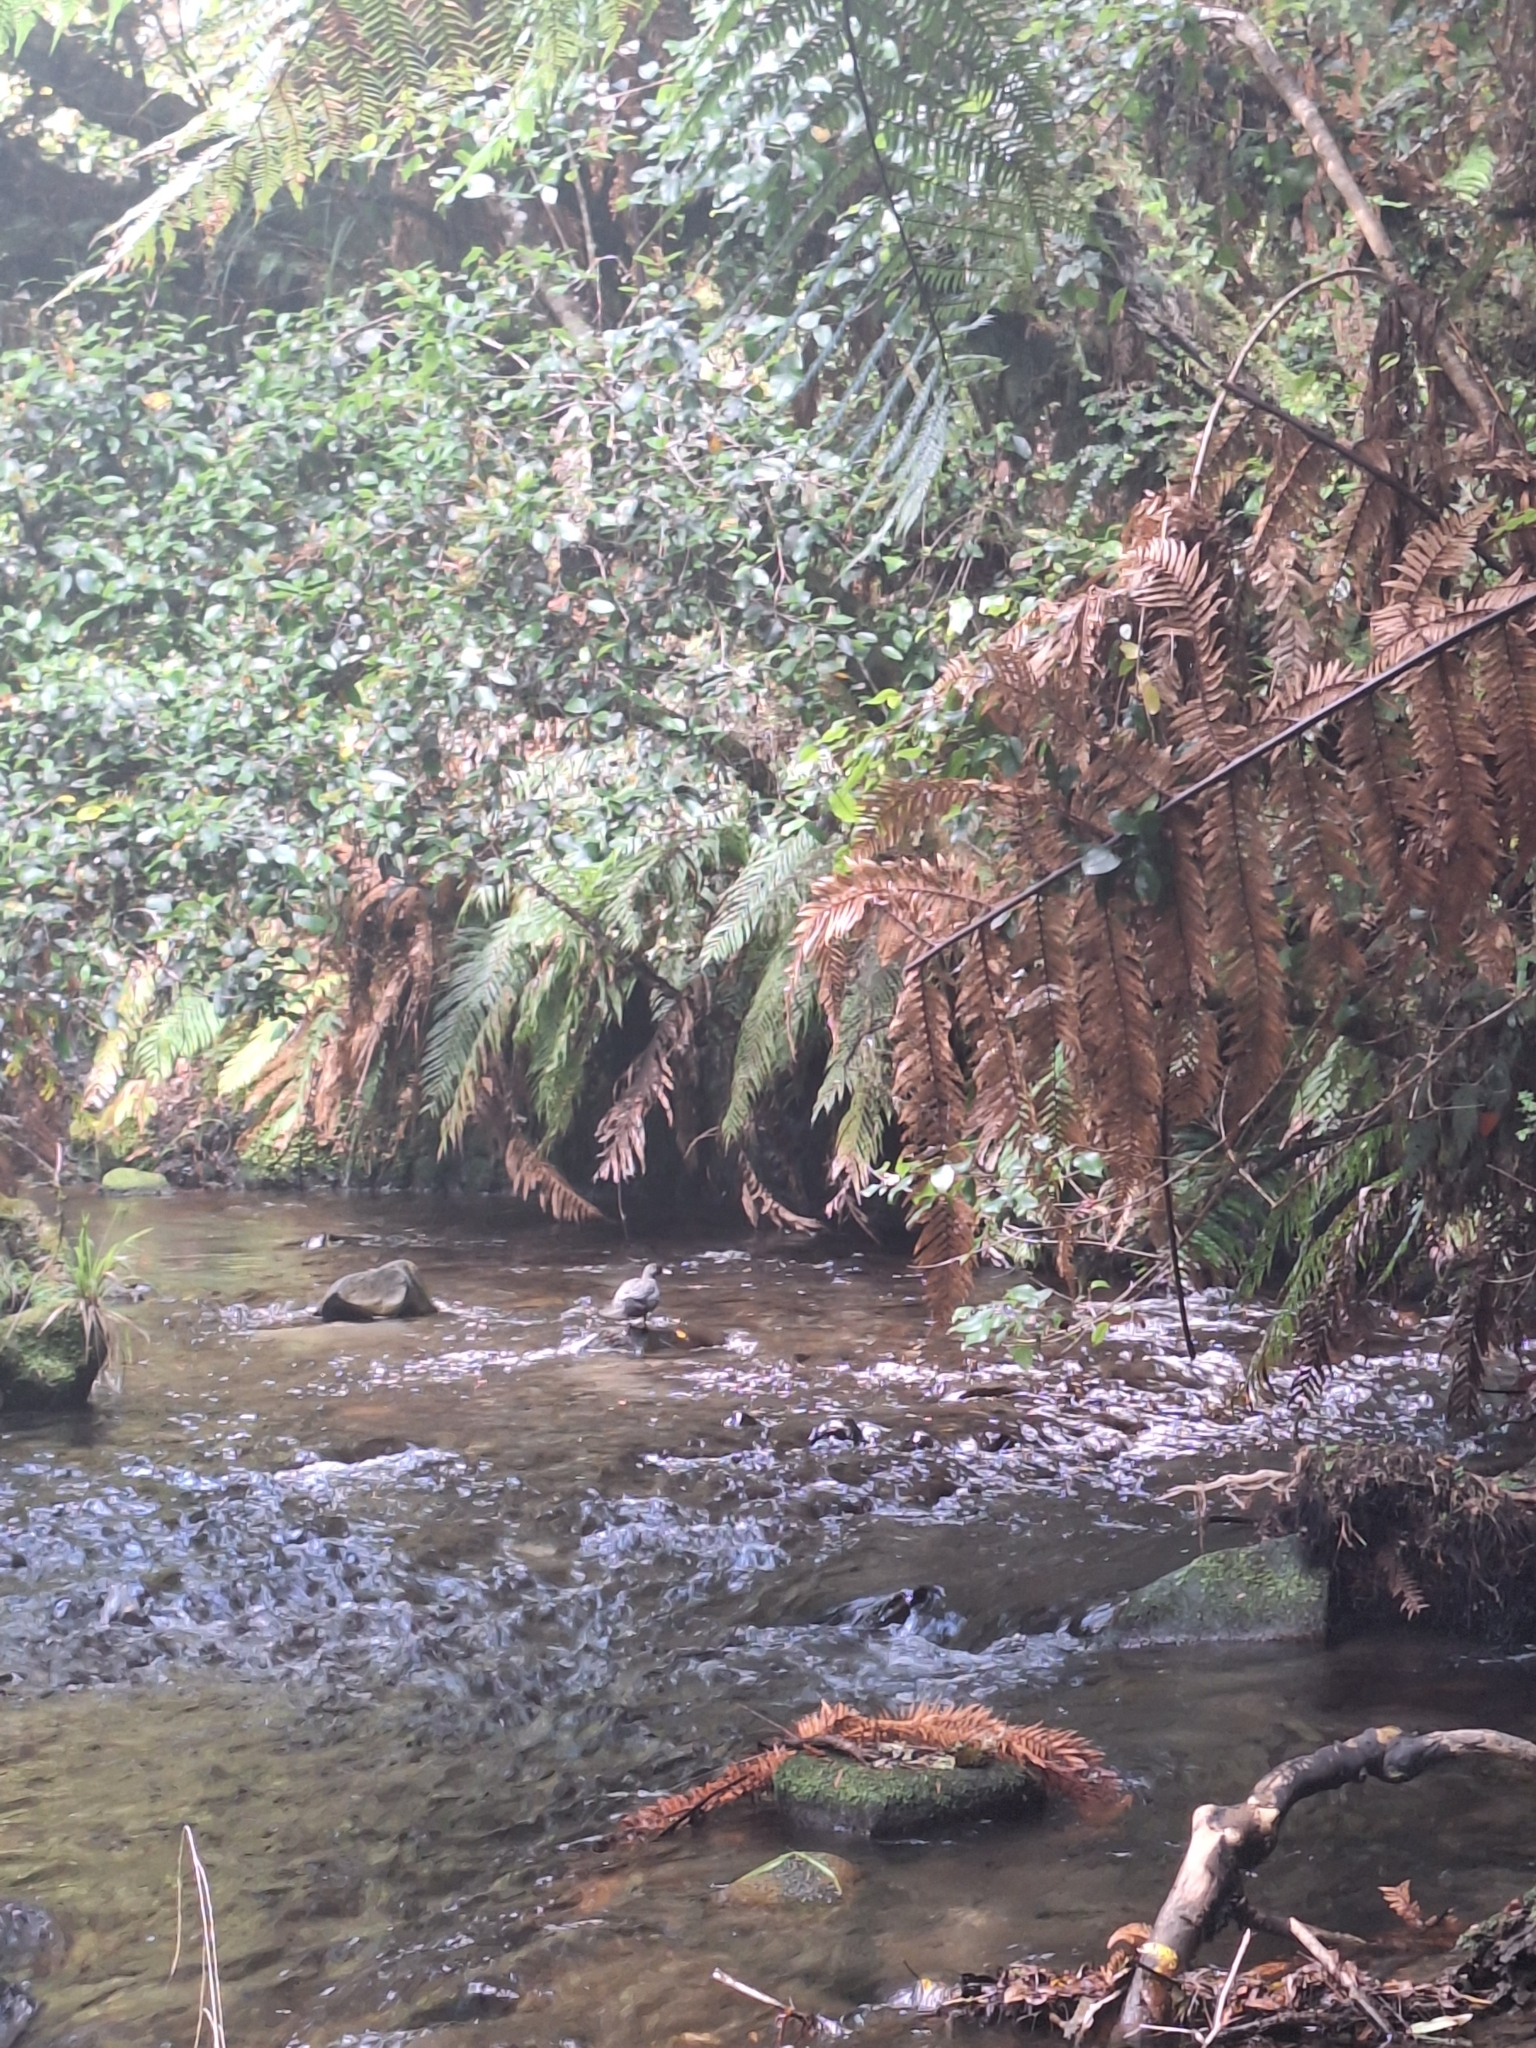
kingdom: Animalia
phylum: Chordata
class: Aves
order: Anseriformes
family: Anatidae
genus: Hymenolaimus
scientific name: Hymenolaimus malacorhynchos
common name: Blue duck
